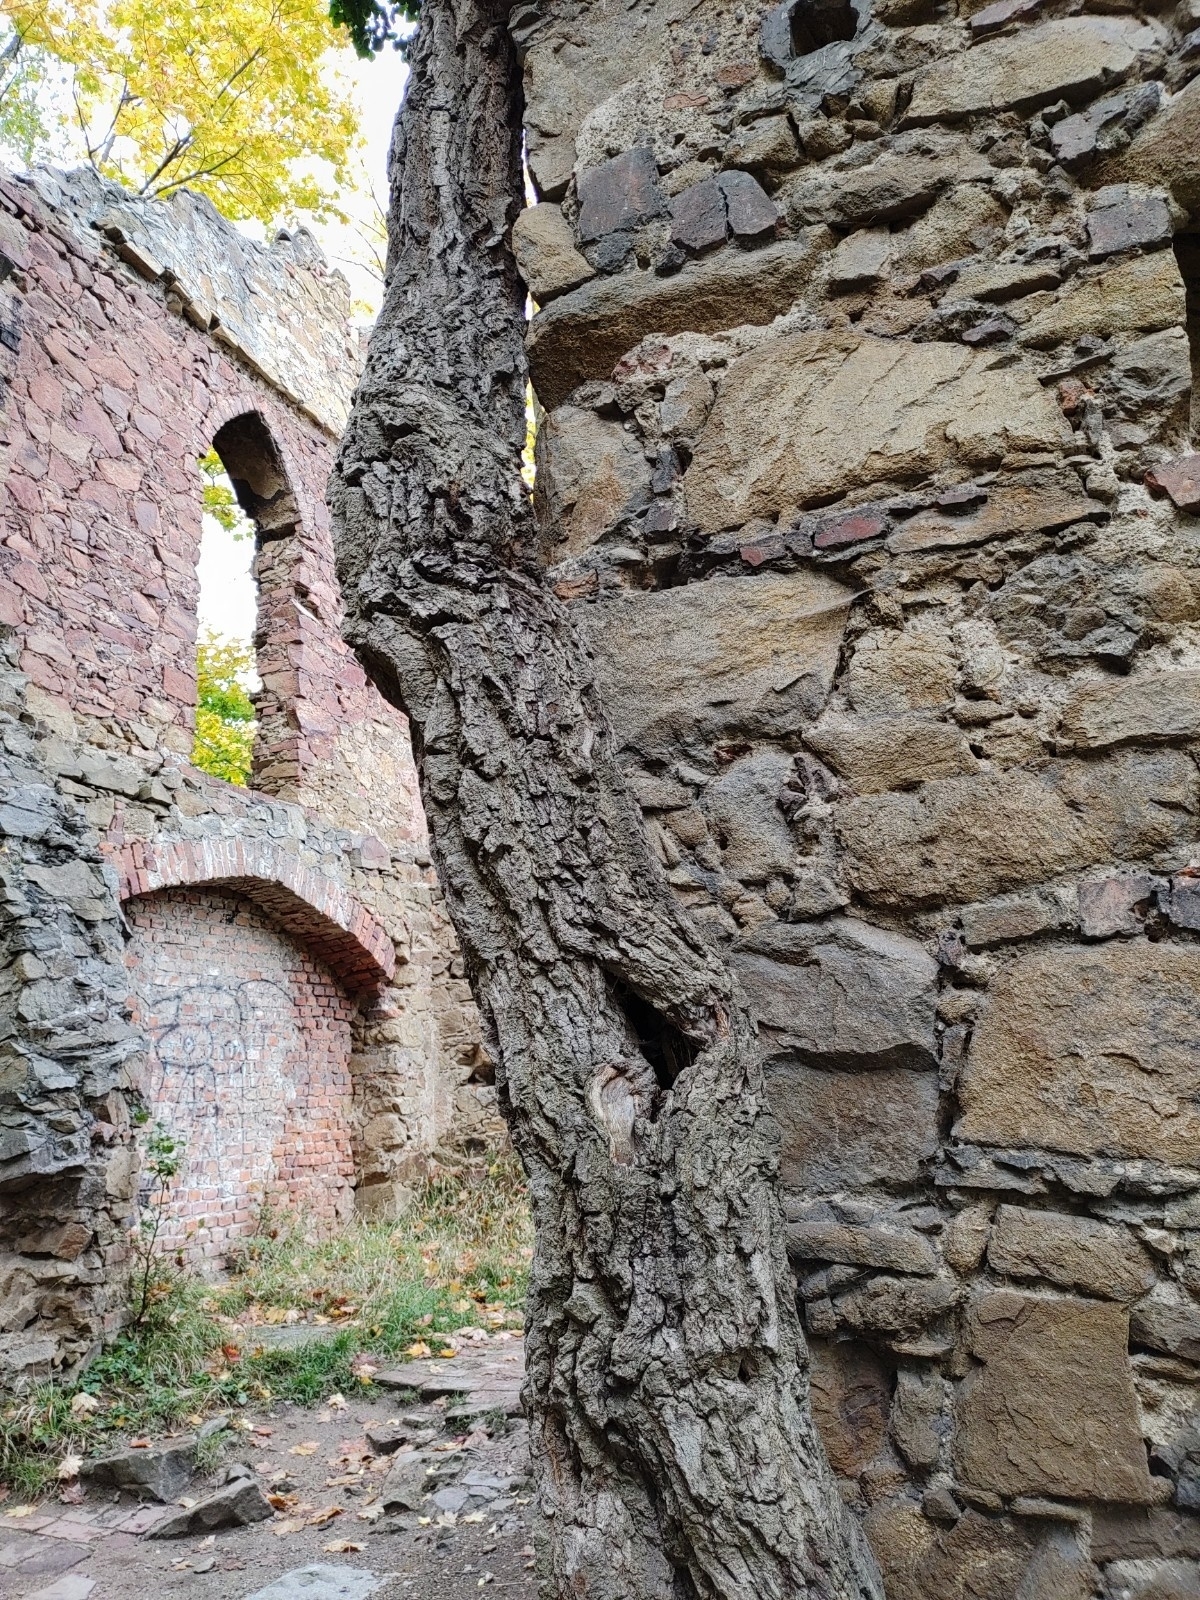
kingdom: Plantae
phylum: Tracheophyta
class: Magnoliopsida
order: Apiales
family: Araliaceae
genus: Hedera
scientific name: Hedera helix
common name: Ivy
